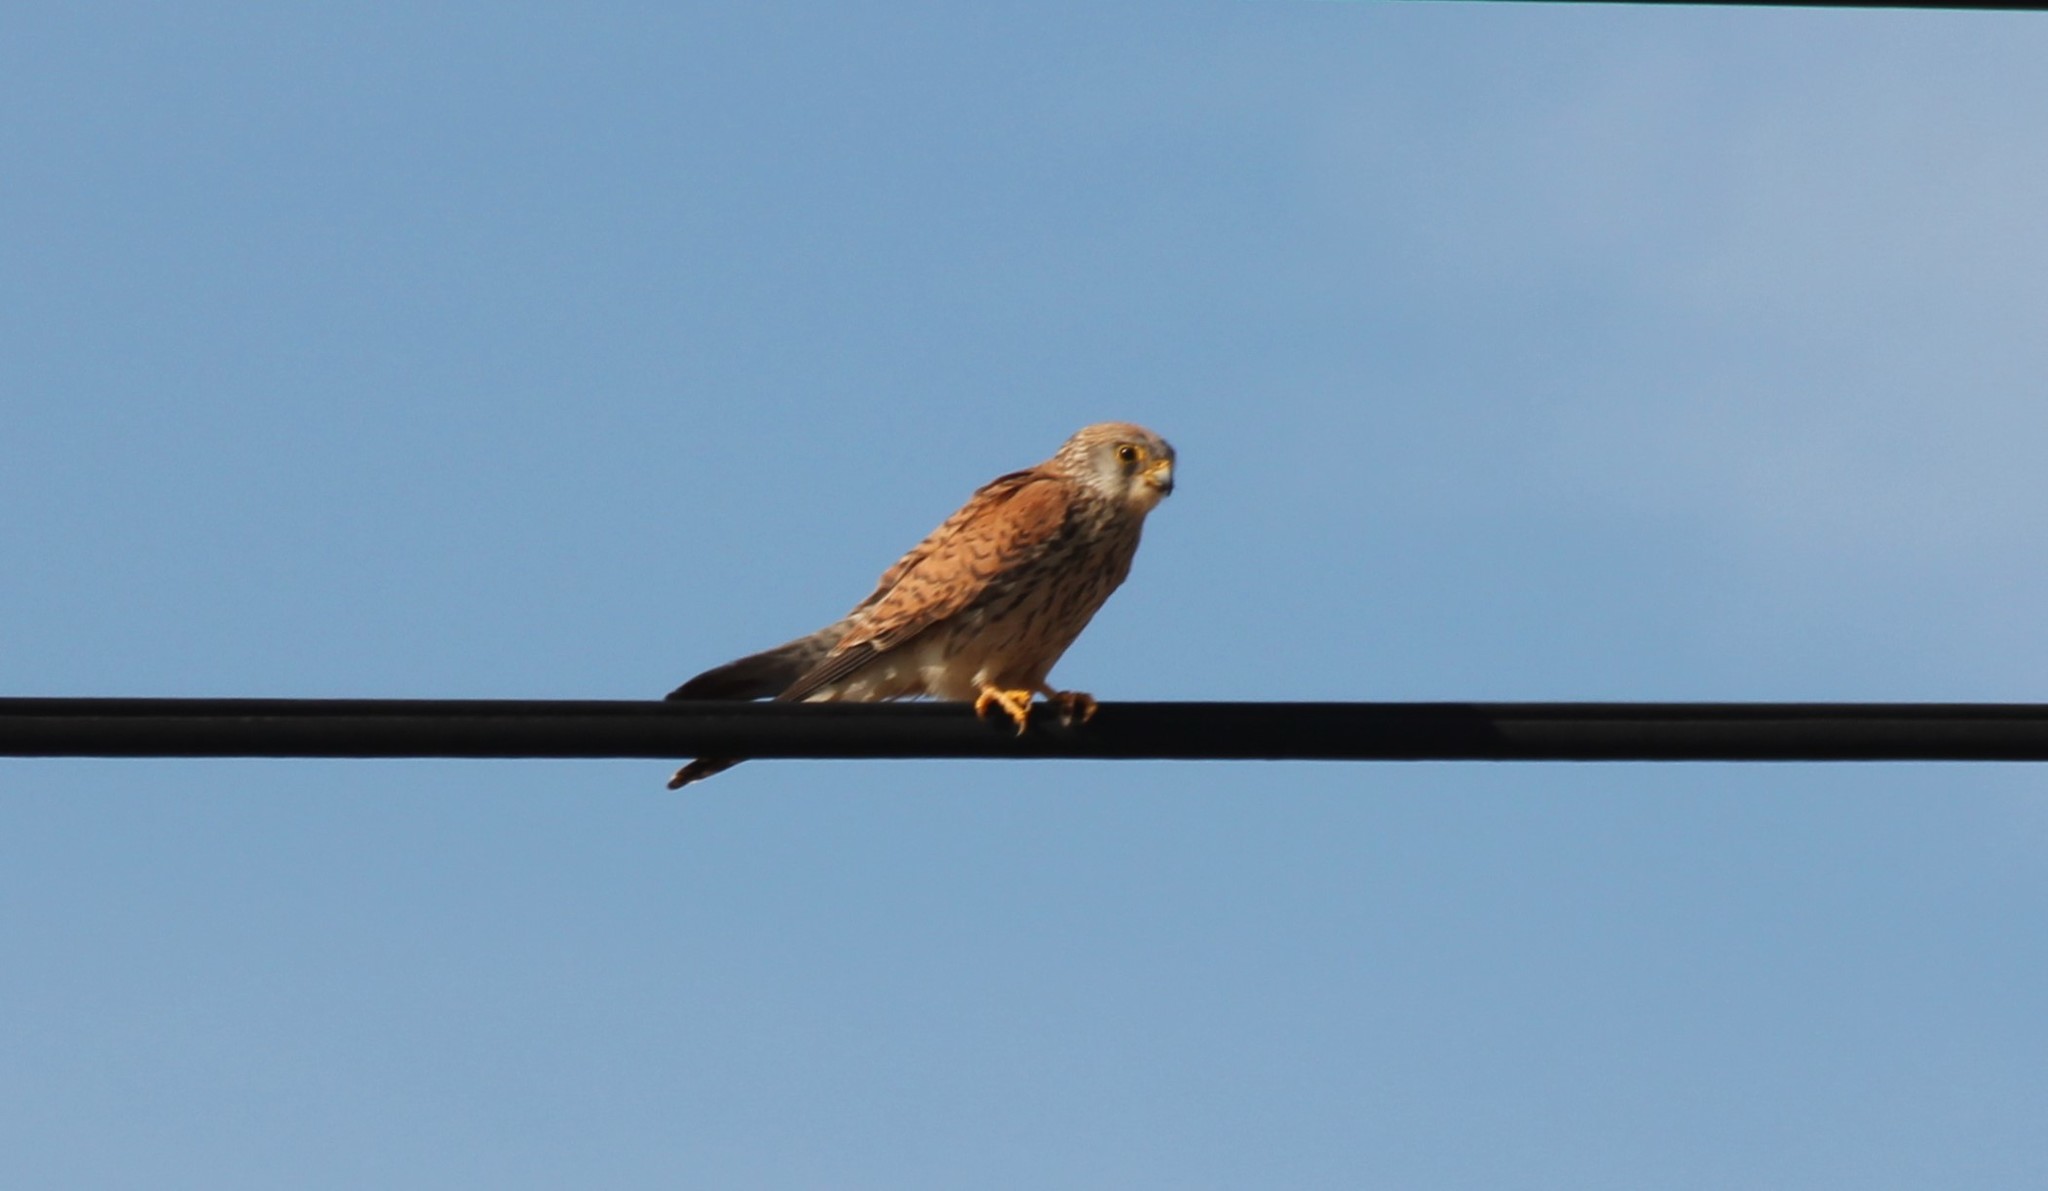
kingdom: Animalia
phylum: Chordata
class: Aves
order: Falconiformes
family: Falconidae
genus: Falco
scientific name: Falco tinnunculus
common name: Common kestrel
